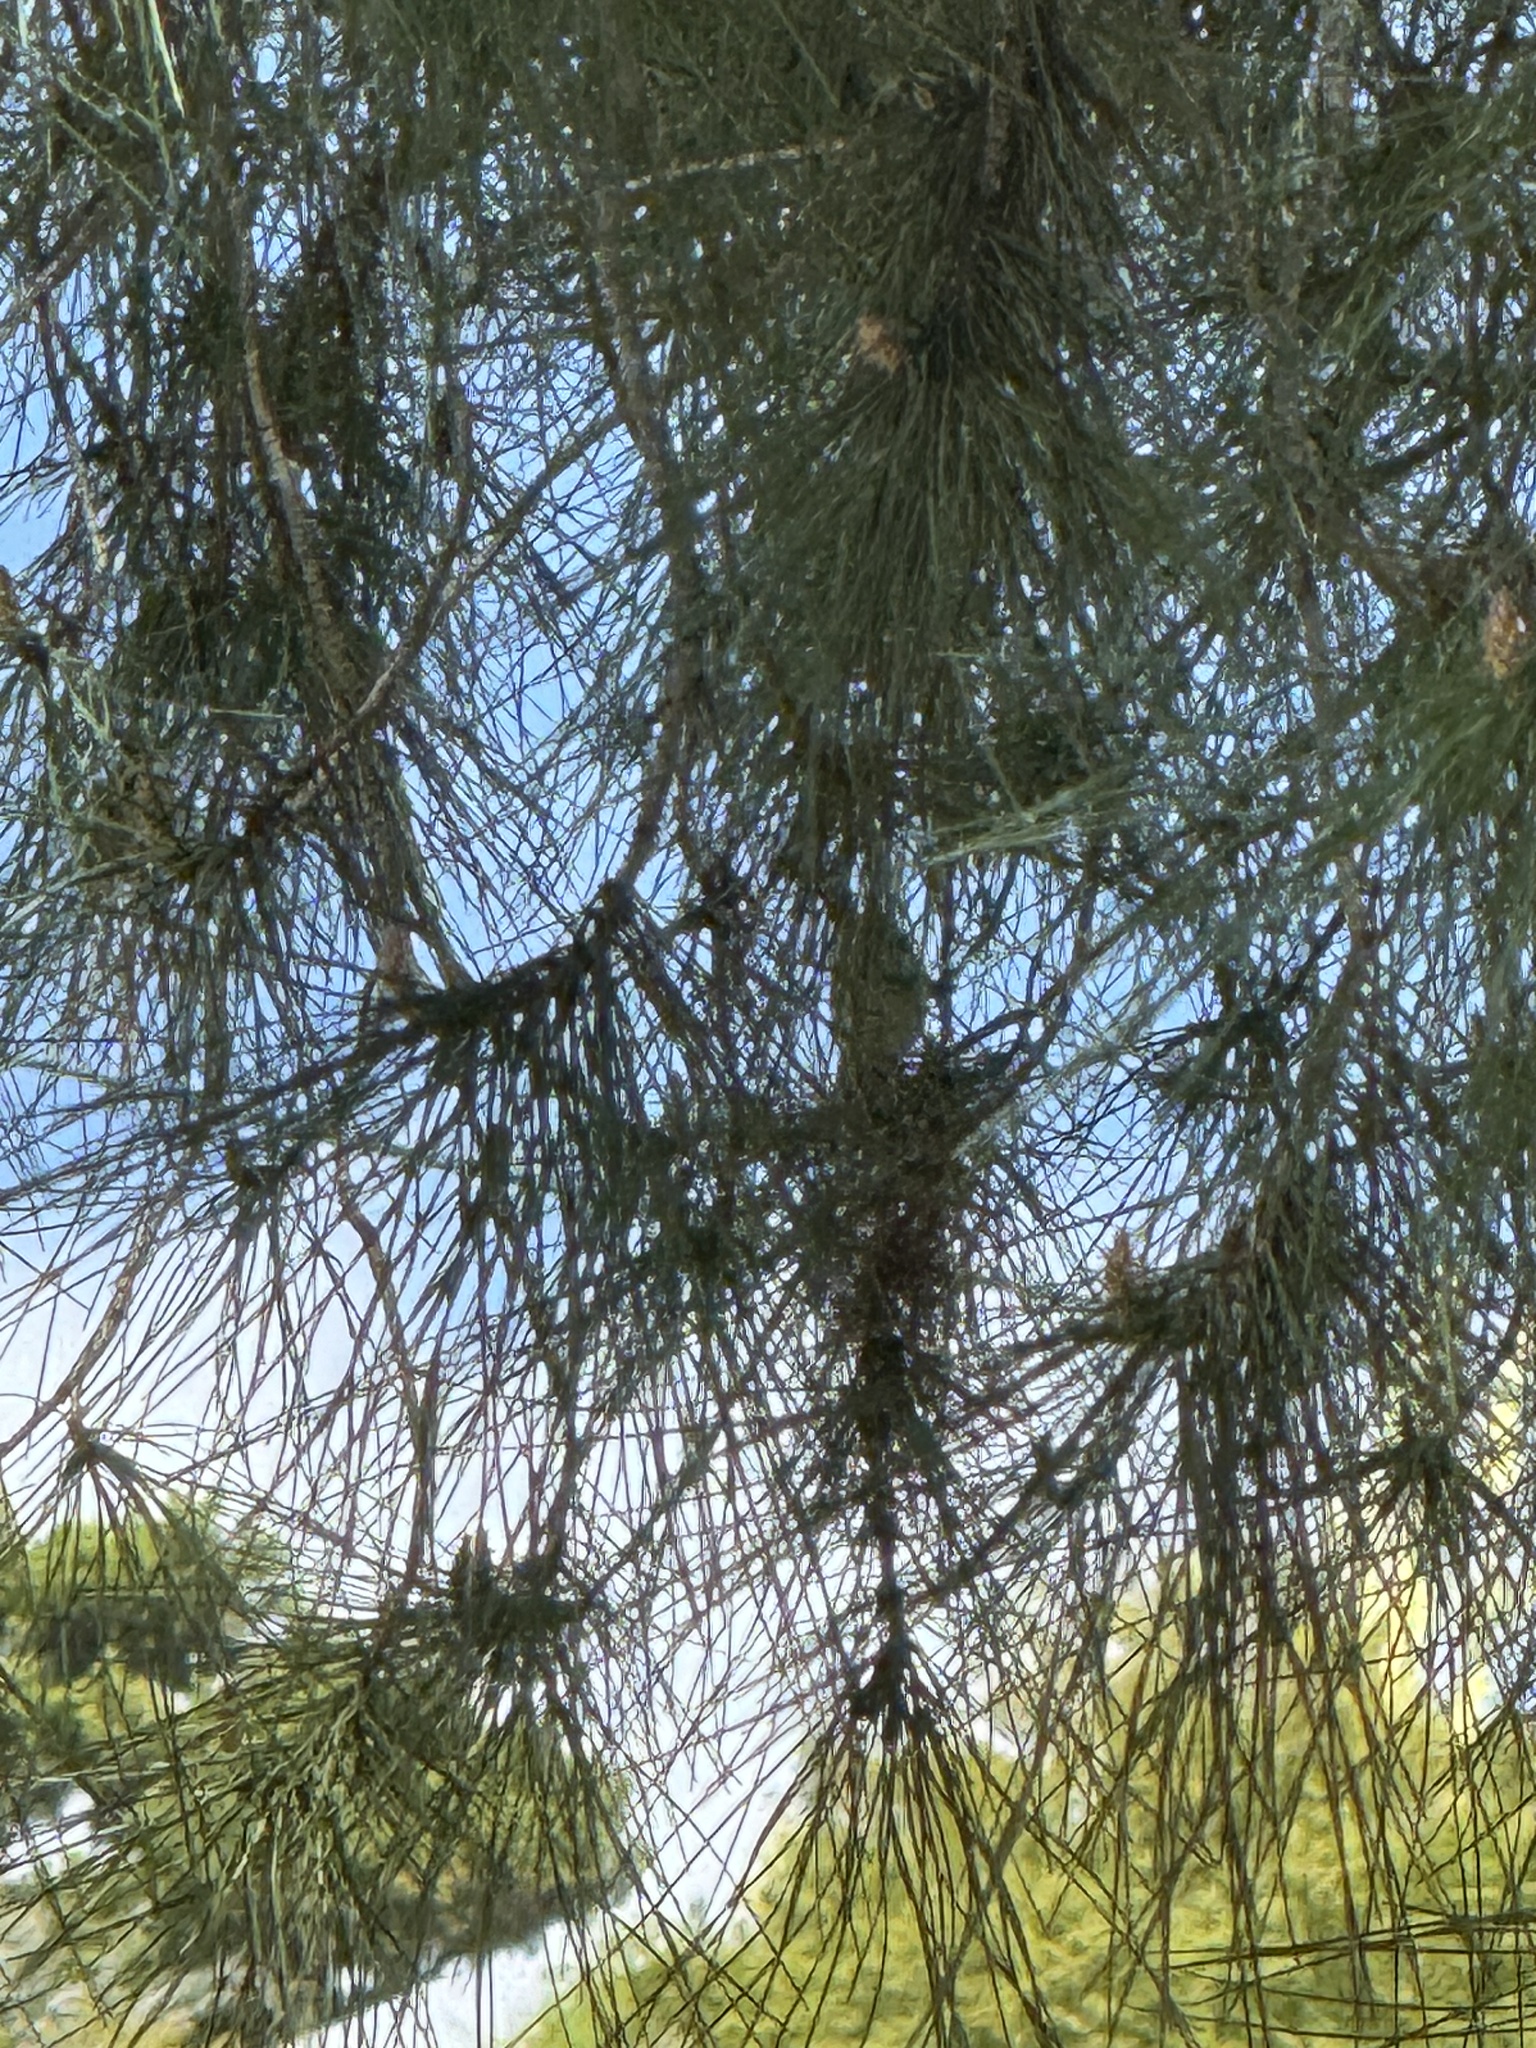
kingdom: Animalia
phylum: Chordata
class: Aves
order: Passeriformes
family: Fringillidae
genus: Spinus
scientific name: Spinus psaltria
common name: Lesser goldfinch
